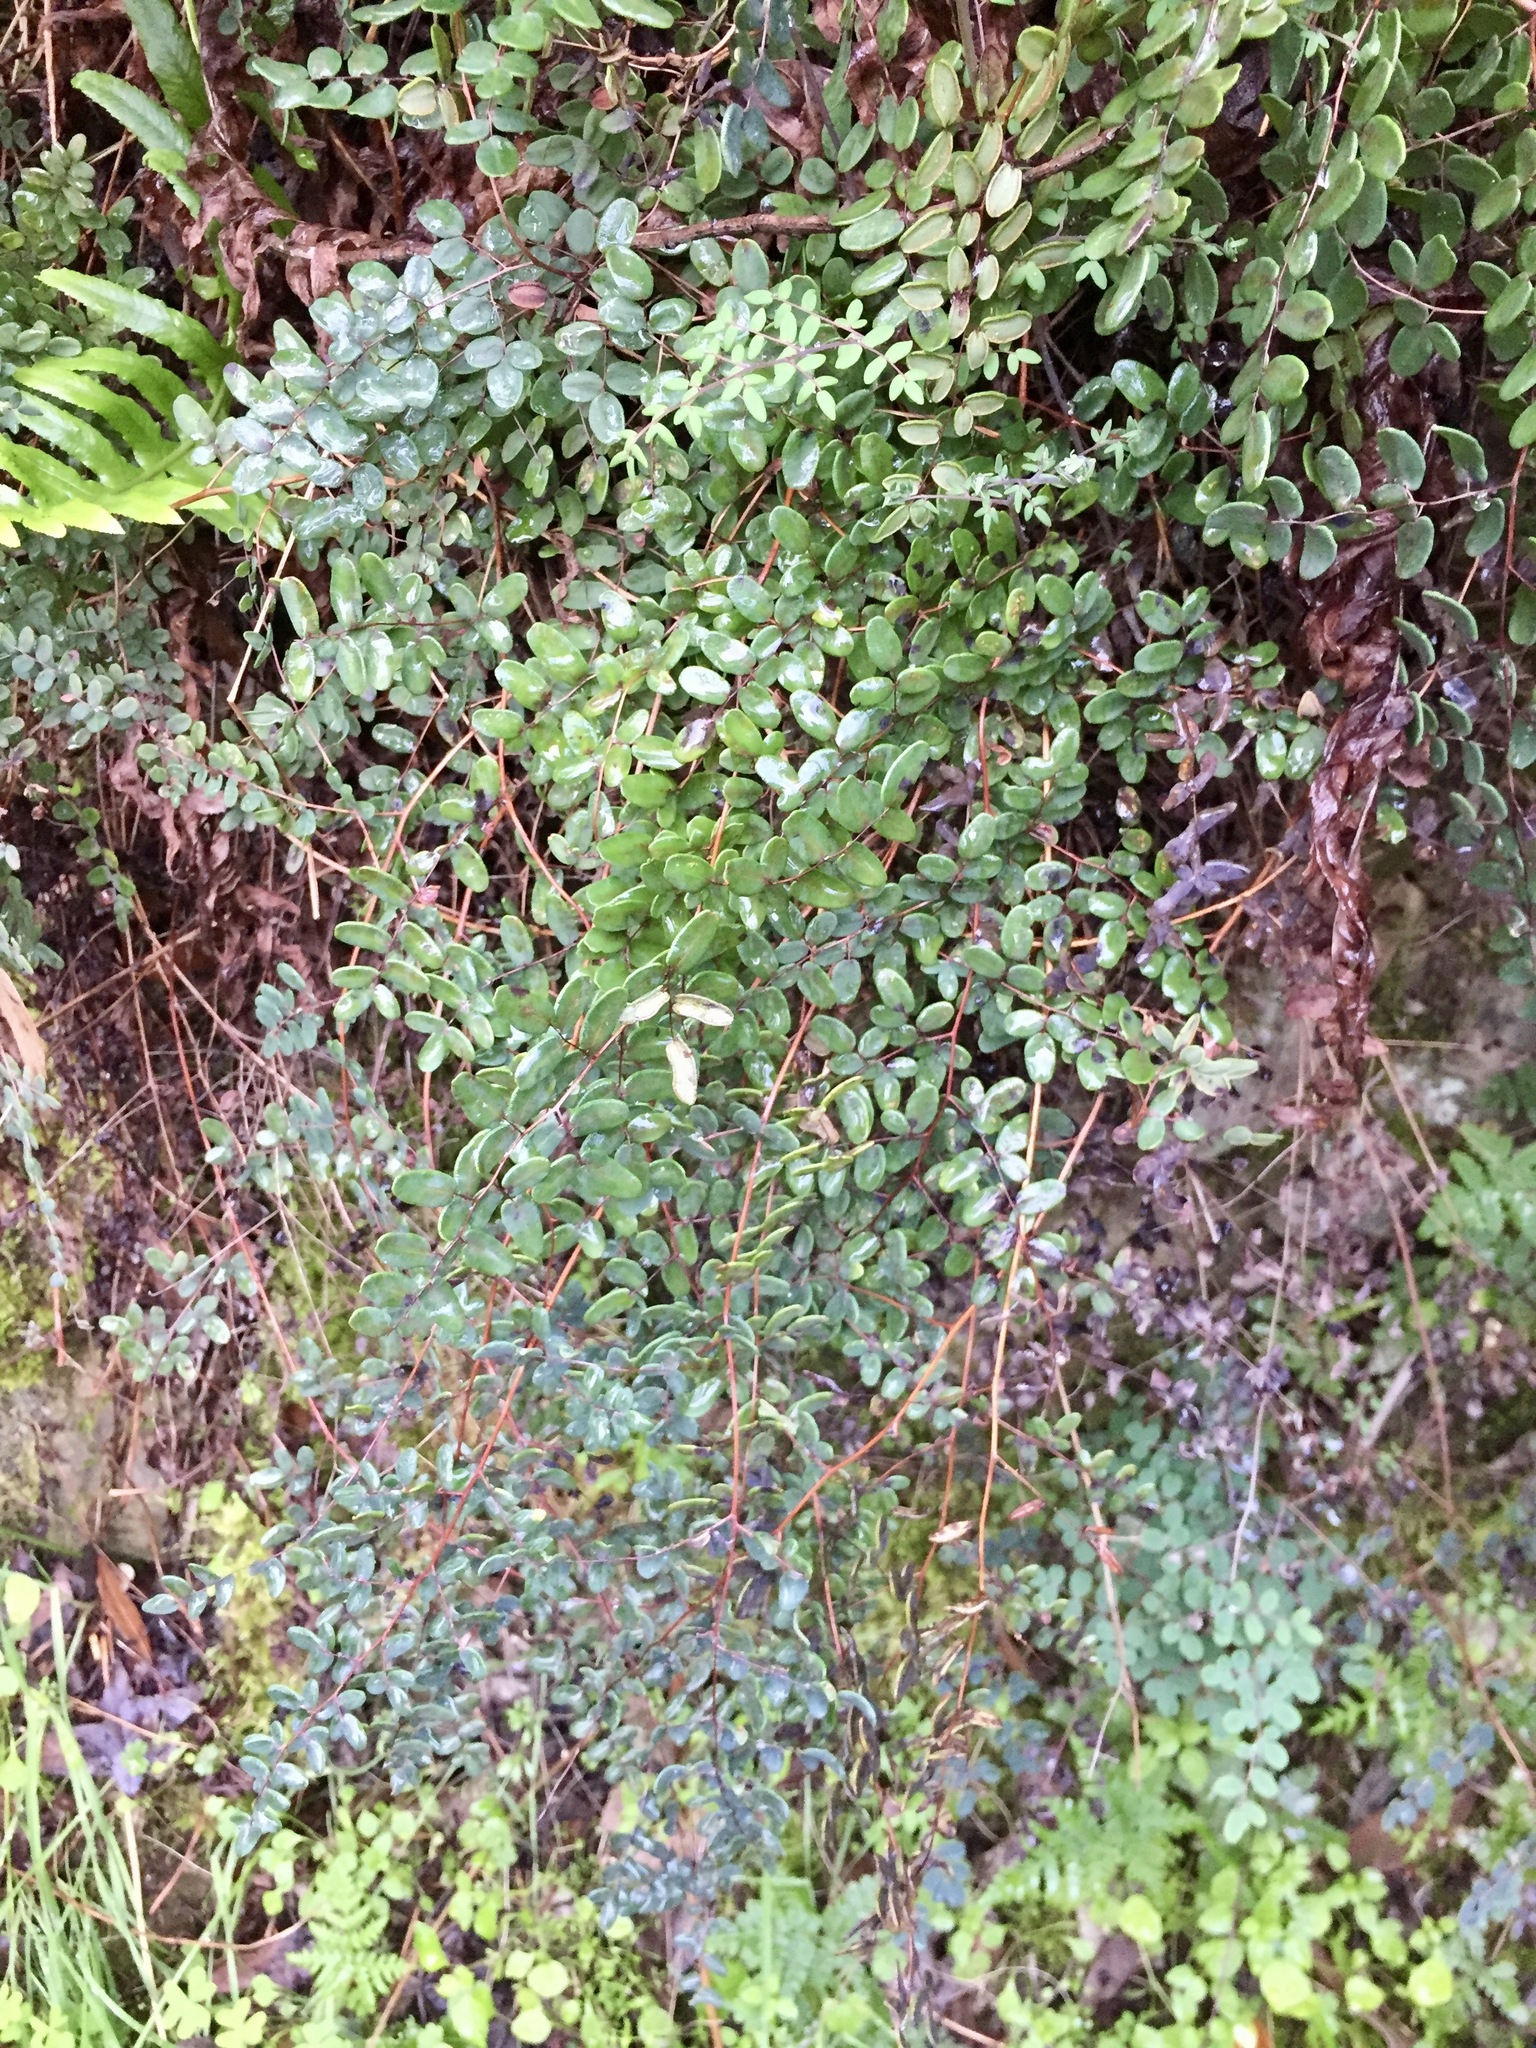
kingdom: Plantae
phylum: Tracheophyta
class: Polypodiopsida
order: Polypodiales
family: Pteridaceae
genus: Pellaea
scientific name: Pellaea andromedifolia
